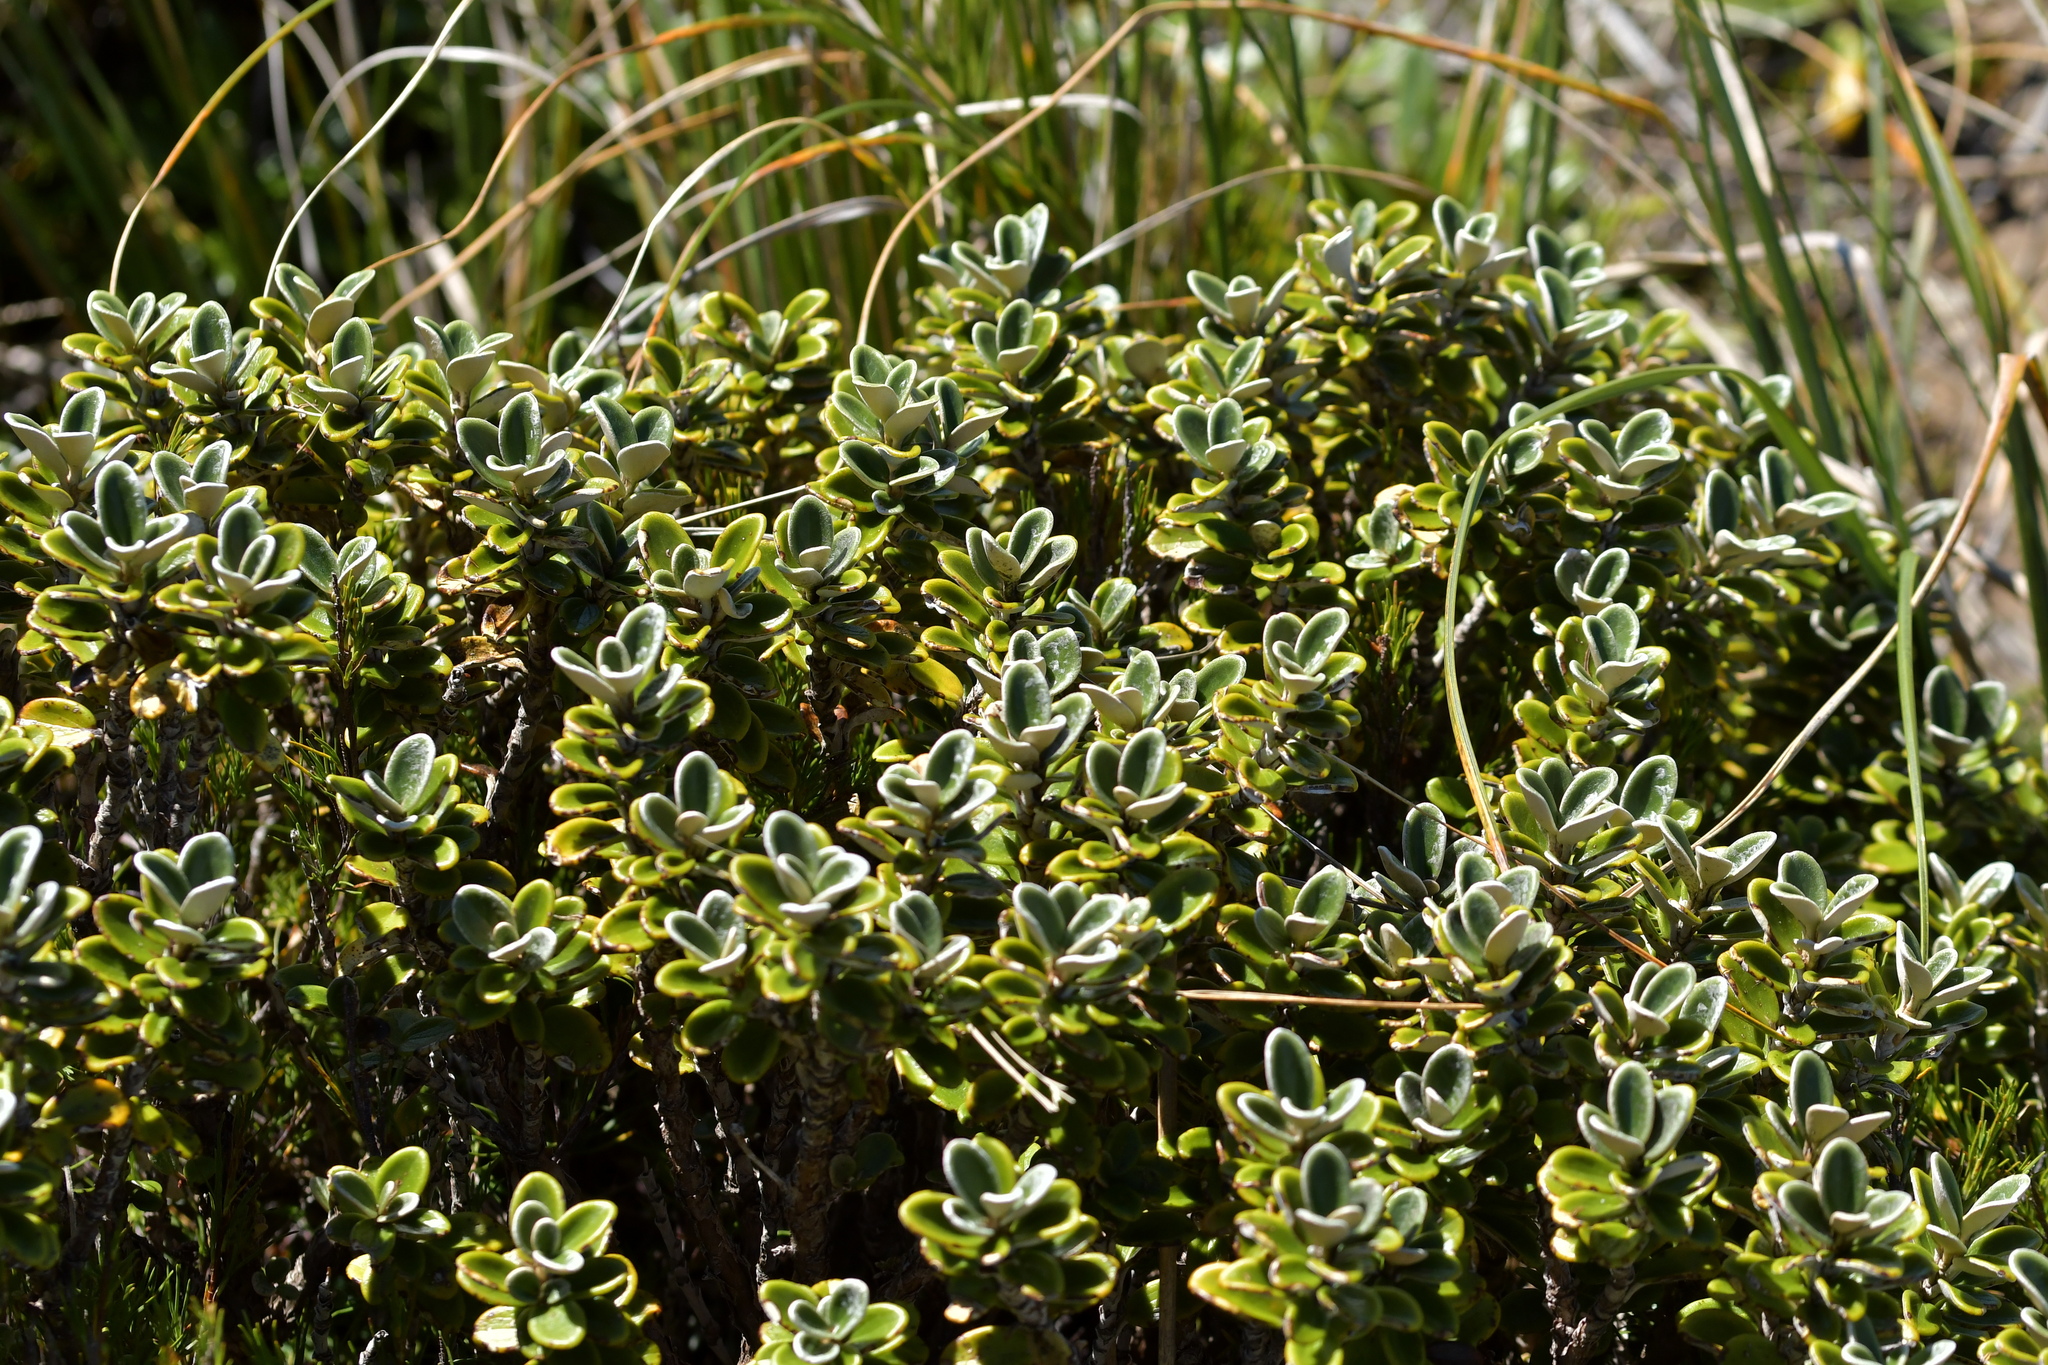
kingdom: Plantae
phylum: Tracheophyta
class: Magnoliopsida
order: Asterales
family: Asteraceae
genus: Brachyglottis
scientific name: Brachyglottis bidwillii
